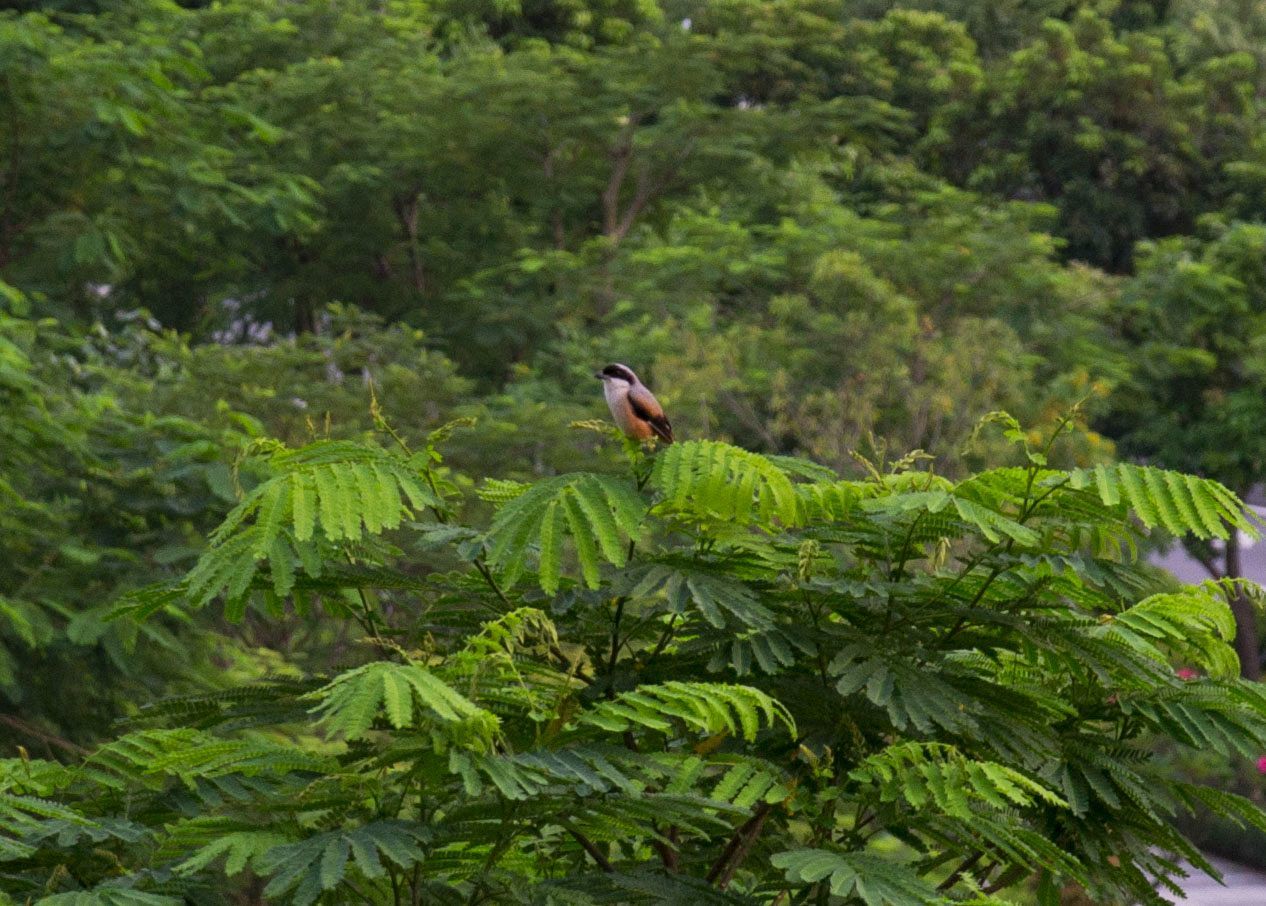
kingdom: Animalia
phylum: Chordata
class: Aves
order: Passeriformes
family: Laniidae
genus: Lanius
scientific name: Lanius schach
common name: Long-tailed shrike
